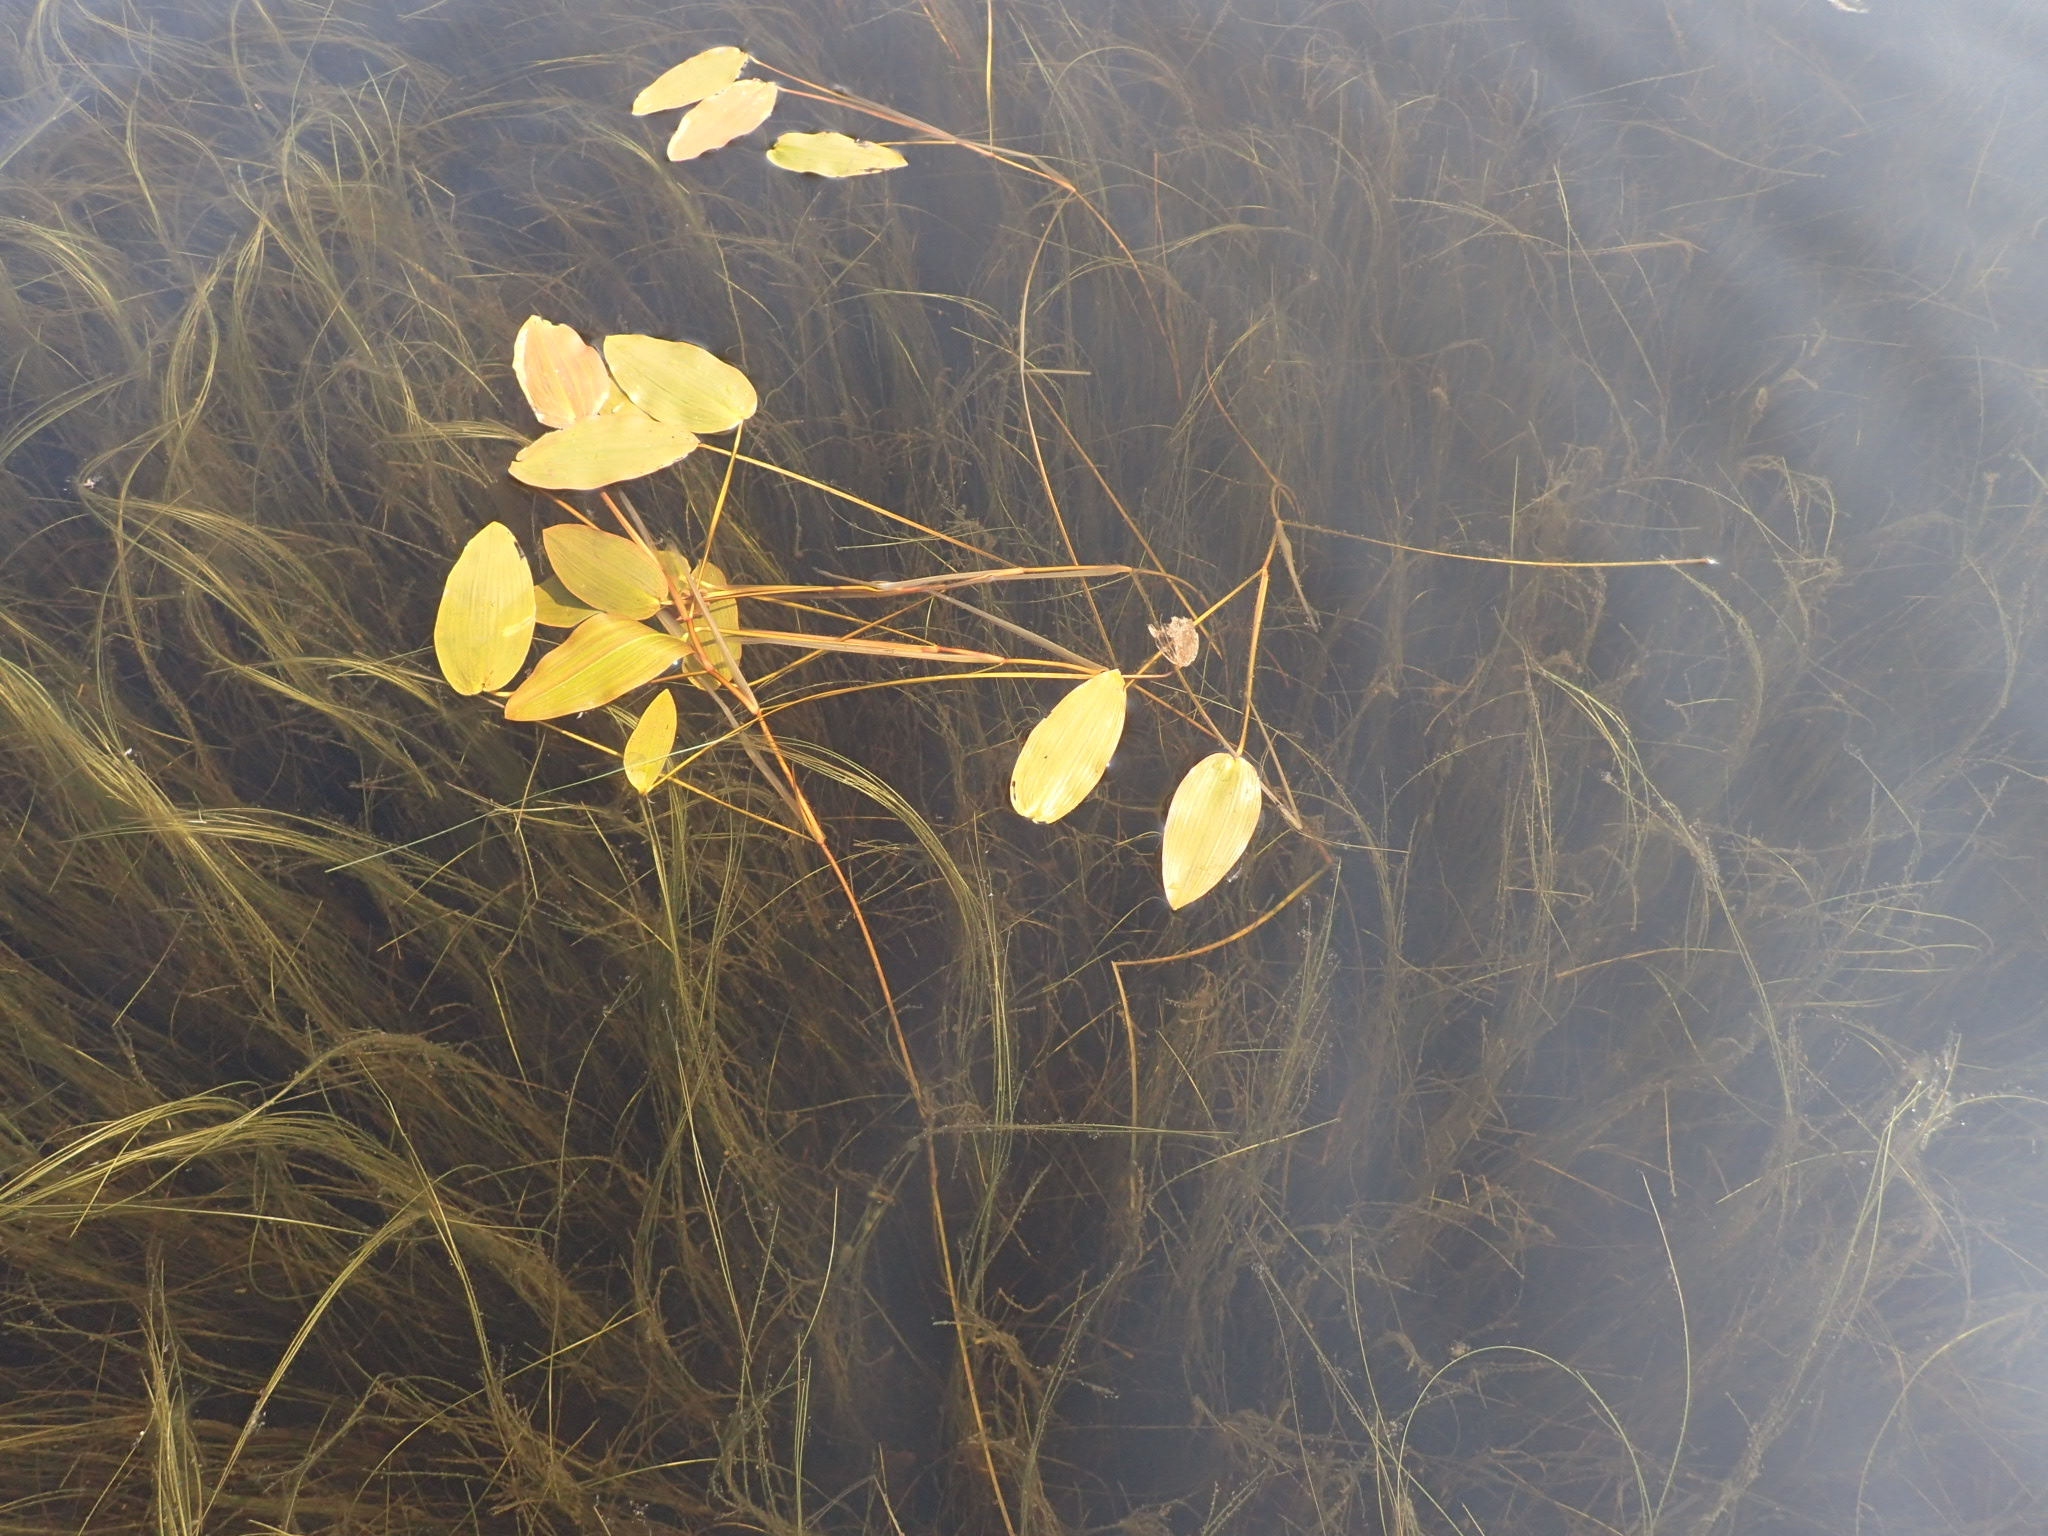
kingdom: Plantae
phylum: Tracheophyta
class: Liliopsida
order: Alismatales
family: Potamogetonaceae
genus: Potamogeton
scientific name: Potamogeton natans
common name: Broad-leaved pondweed
